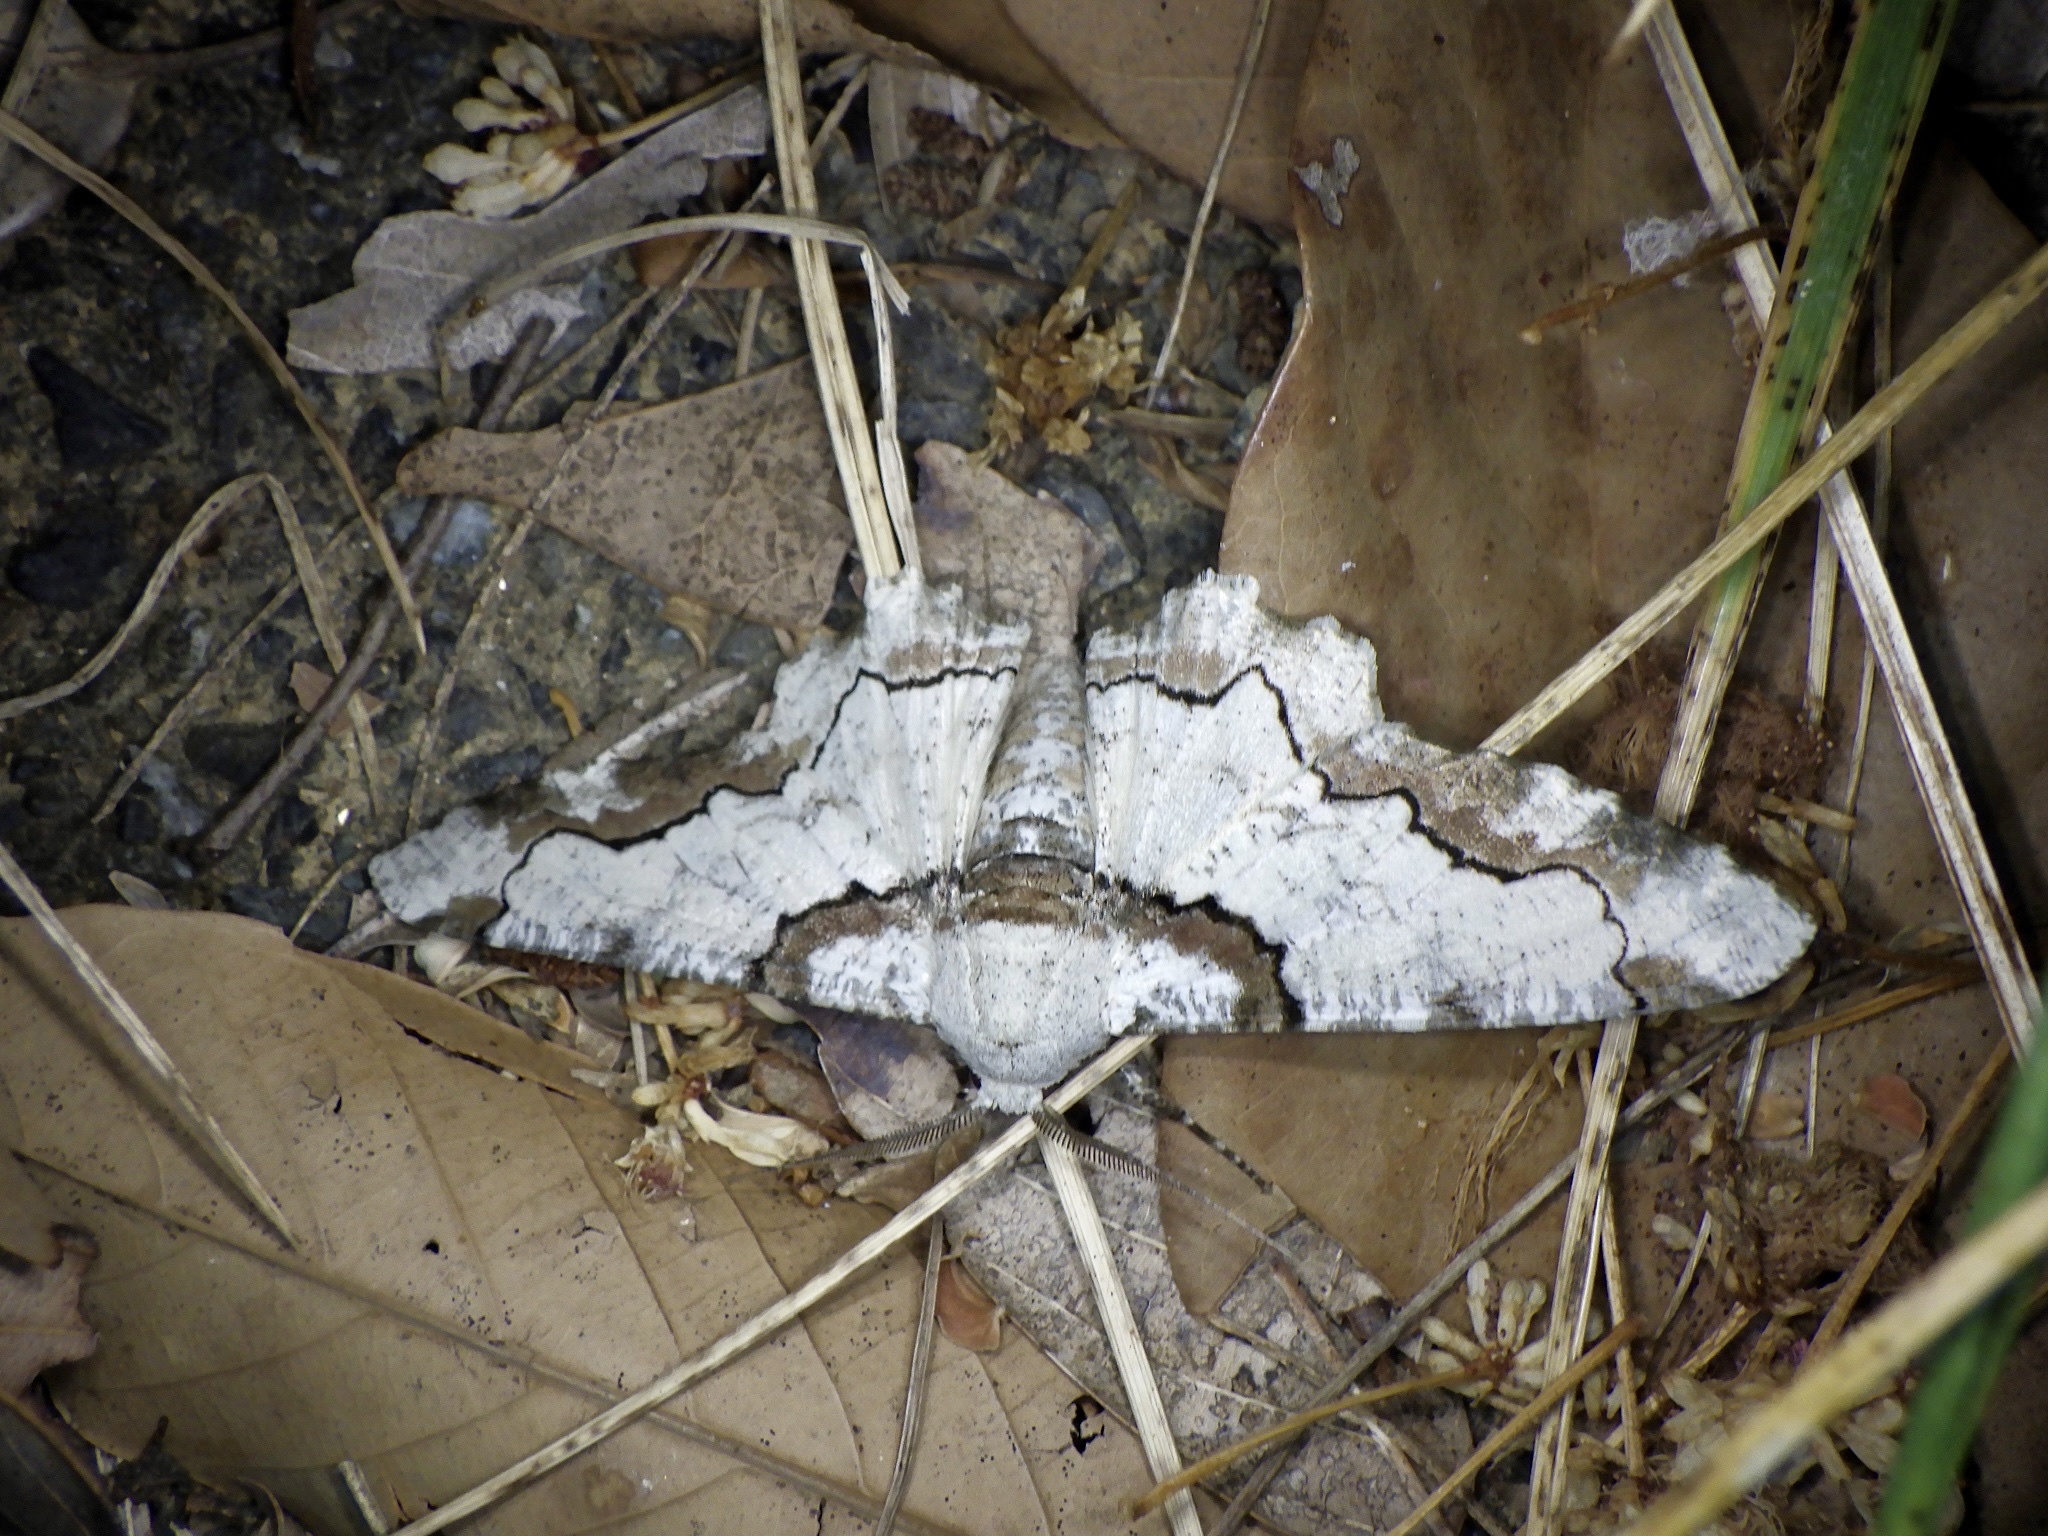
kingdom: Animalia
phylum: Arthropoda
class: Insecta
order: Lepidoptera
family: Geometridae
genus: Biston
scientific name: Biston regalis
